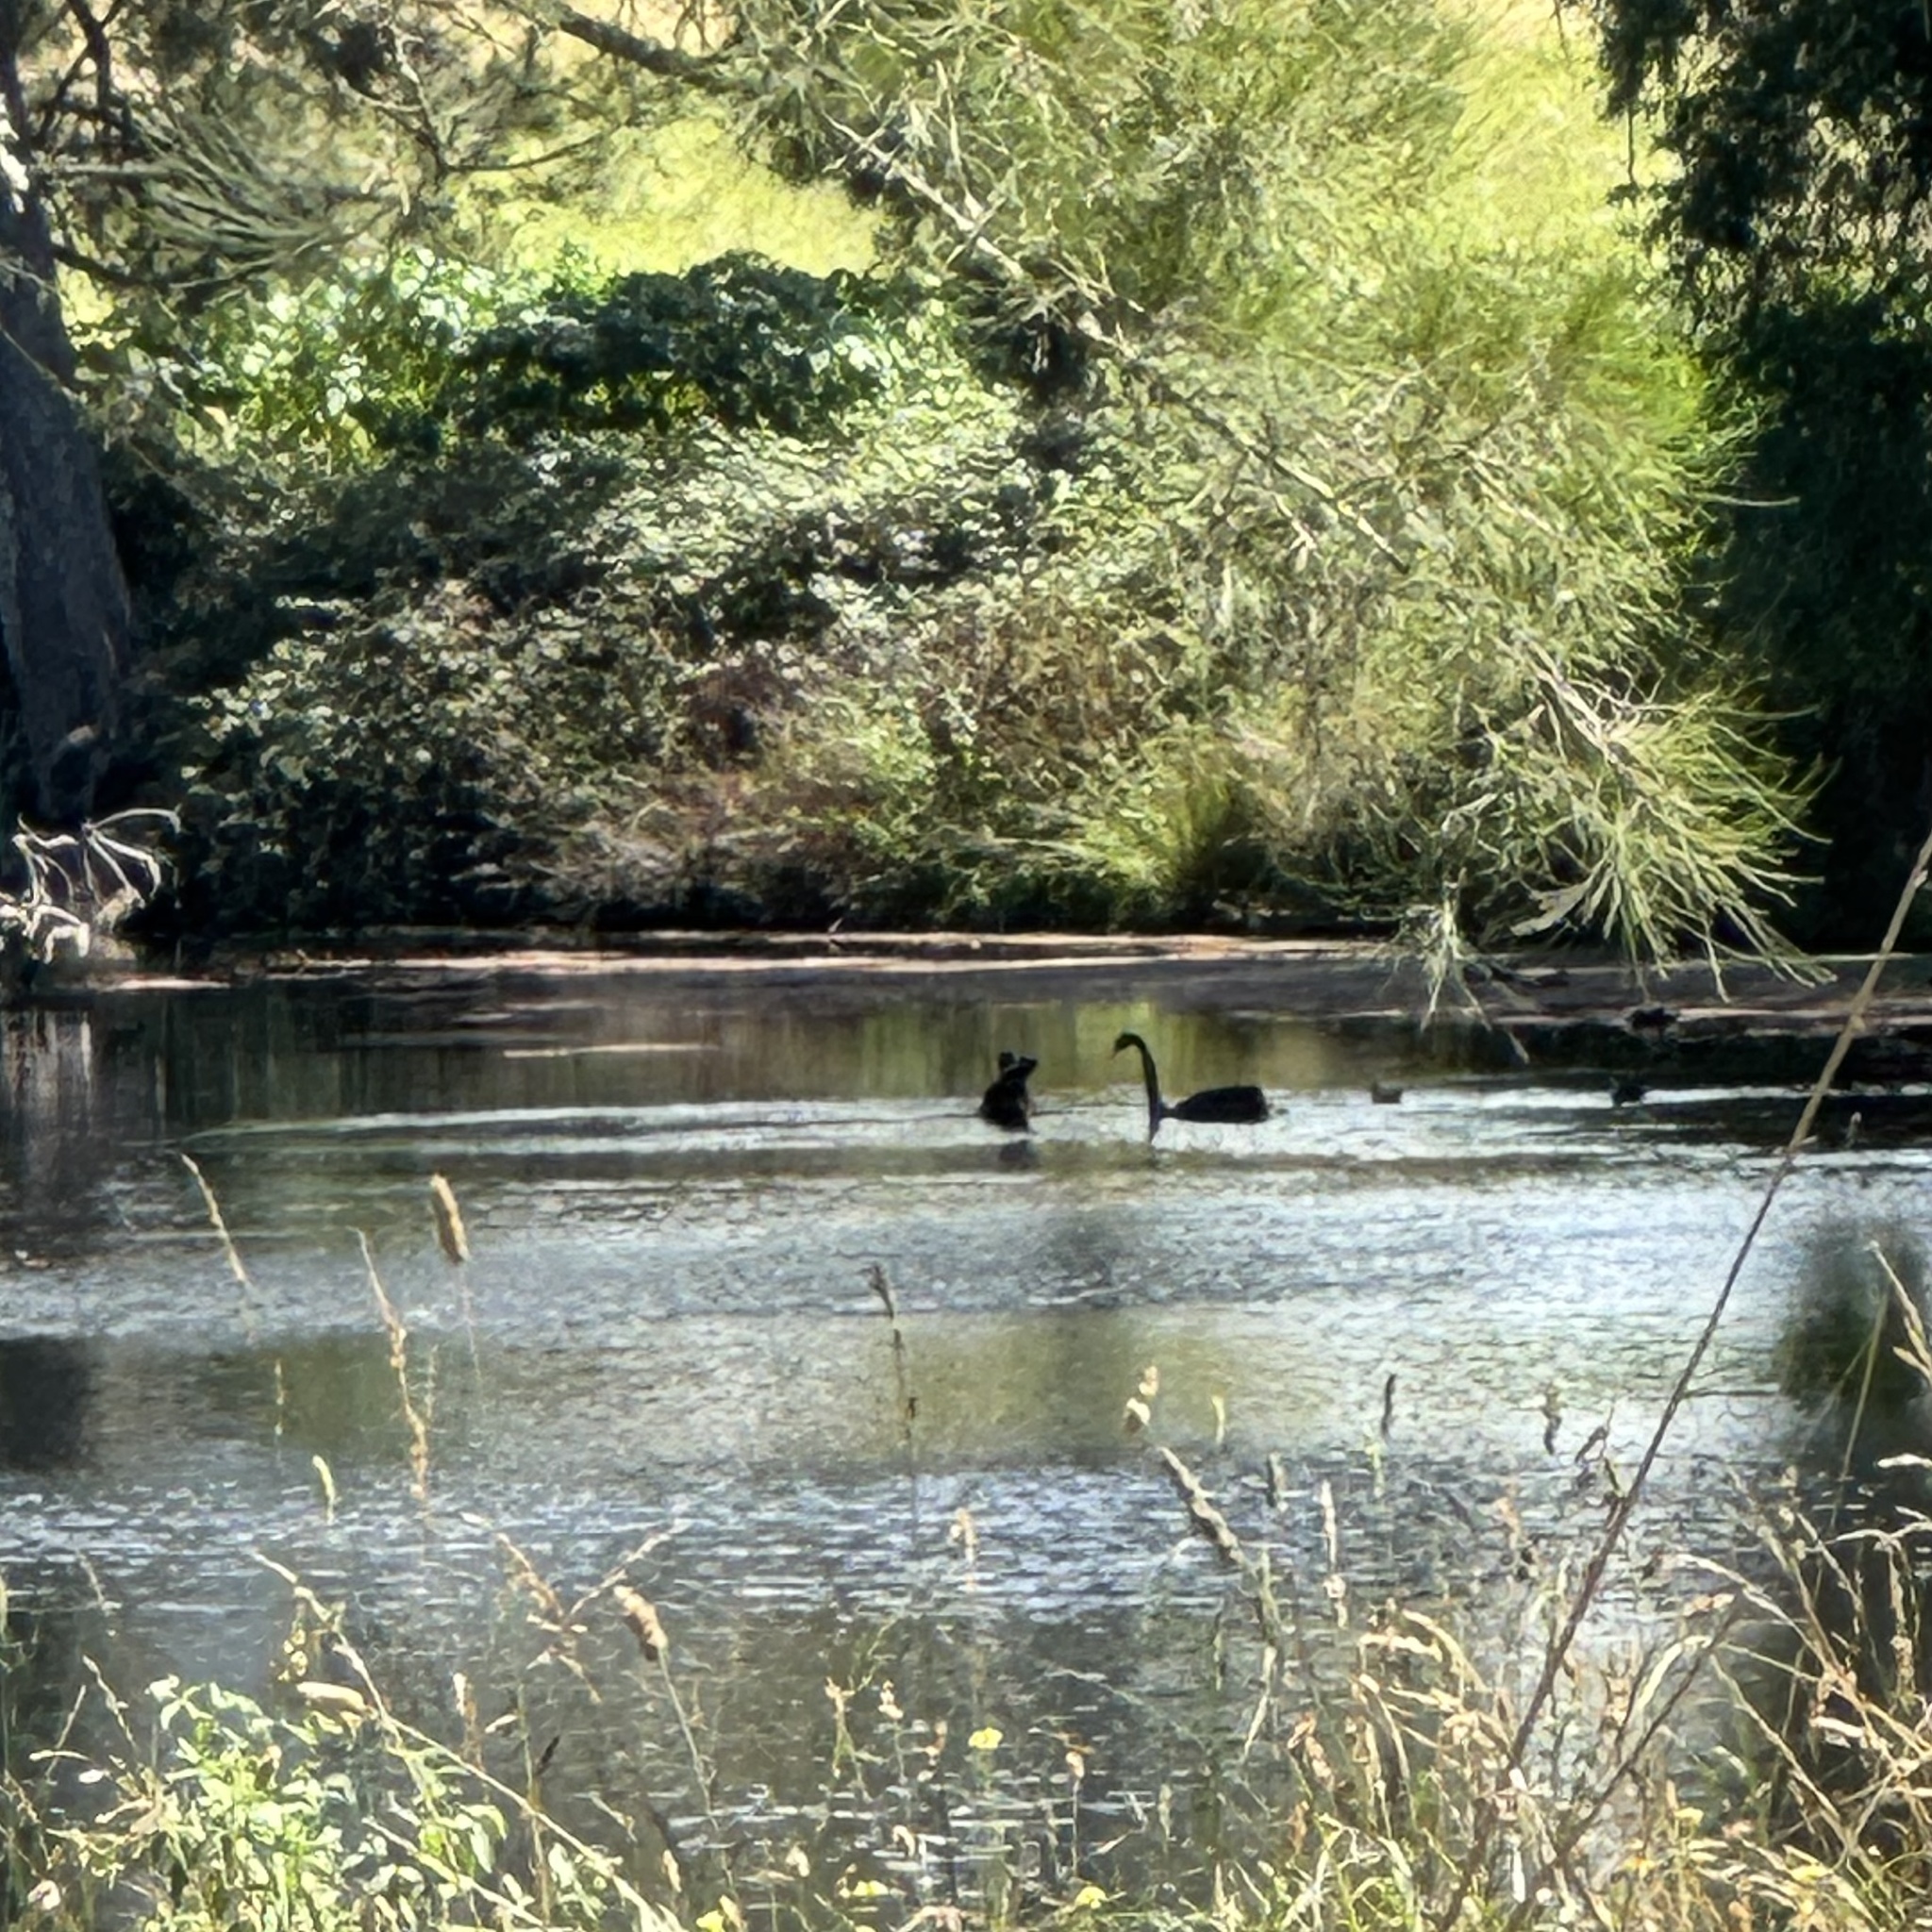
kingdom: Animalia
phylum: Chordata
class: Aves
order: Anseriformes
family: Anatidae
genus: Cygnus
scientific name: Cygnus atratus
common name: Black swan
